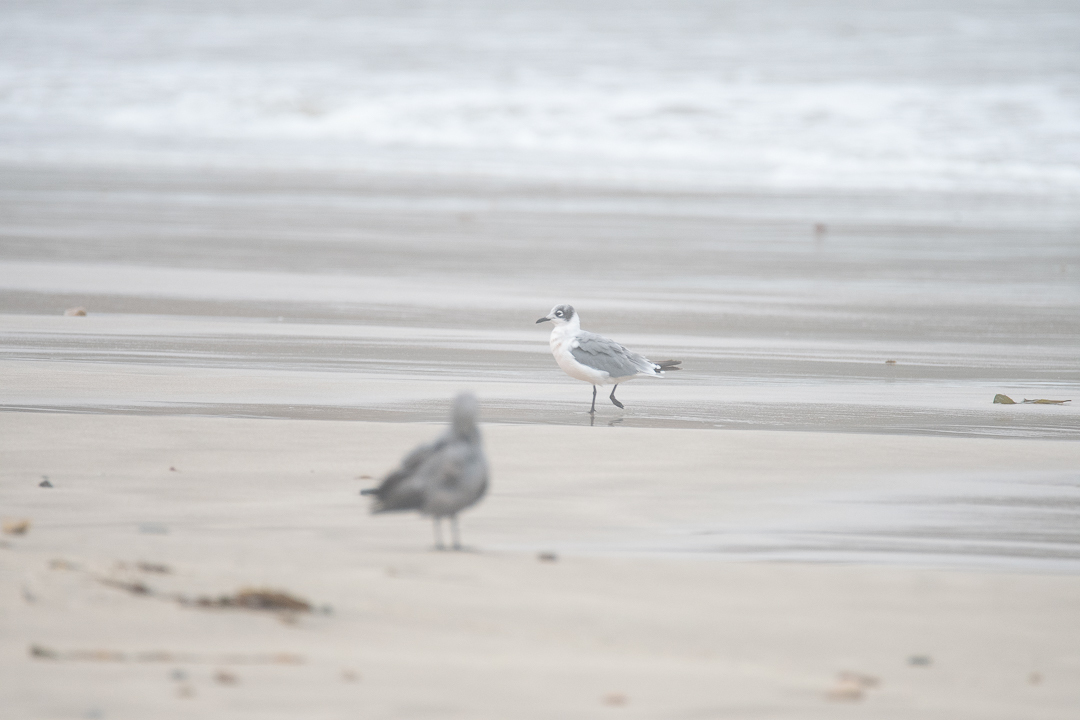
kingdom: Animalia
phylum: Chordata
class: Aves
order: Charadriiformes
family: Laridae
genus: Leucophaeus
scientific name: Leucophaeus pipixcan
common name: Franklin's gull
